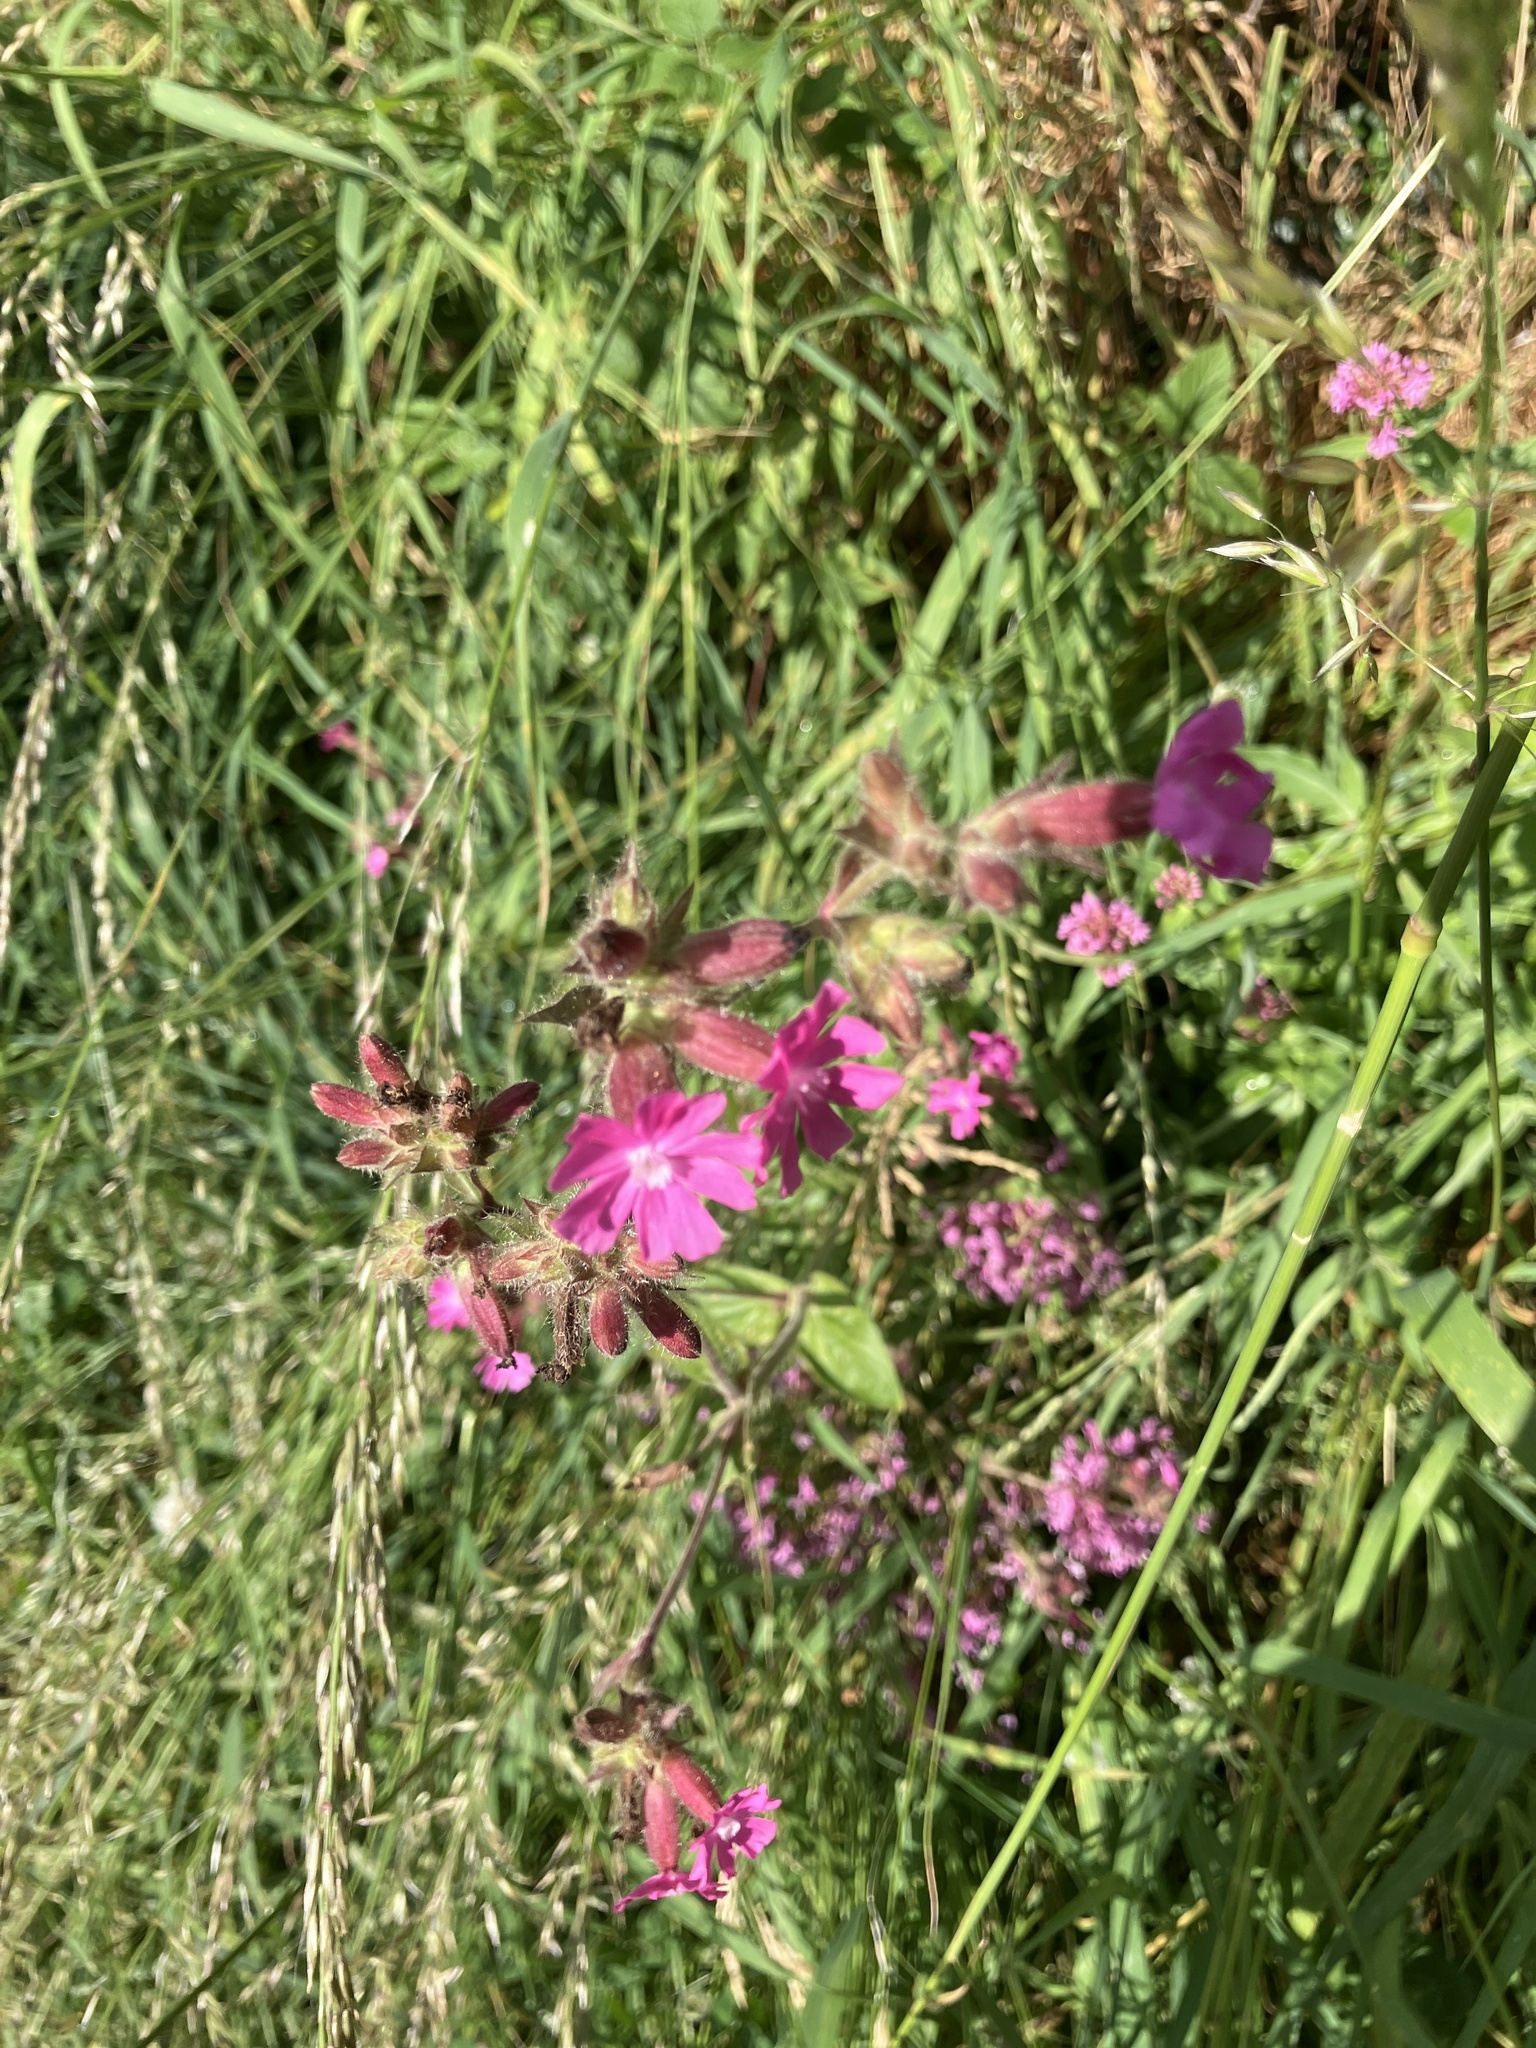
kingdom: Plantae
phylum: Tracheophyta
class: Magnoliopsida
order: Caryophyllales
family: Caryophyllaceae
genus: Silene
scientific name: Silene dioica
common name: Red campion
